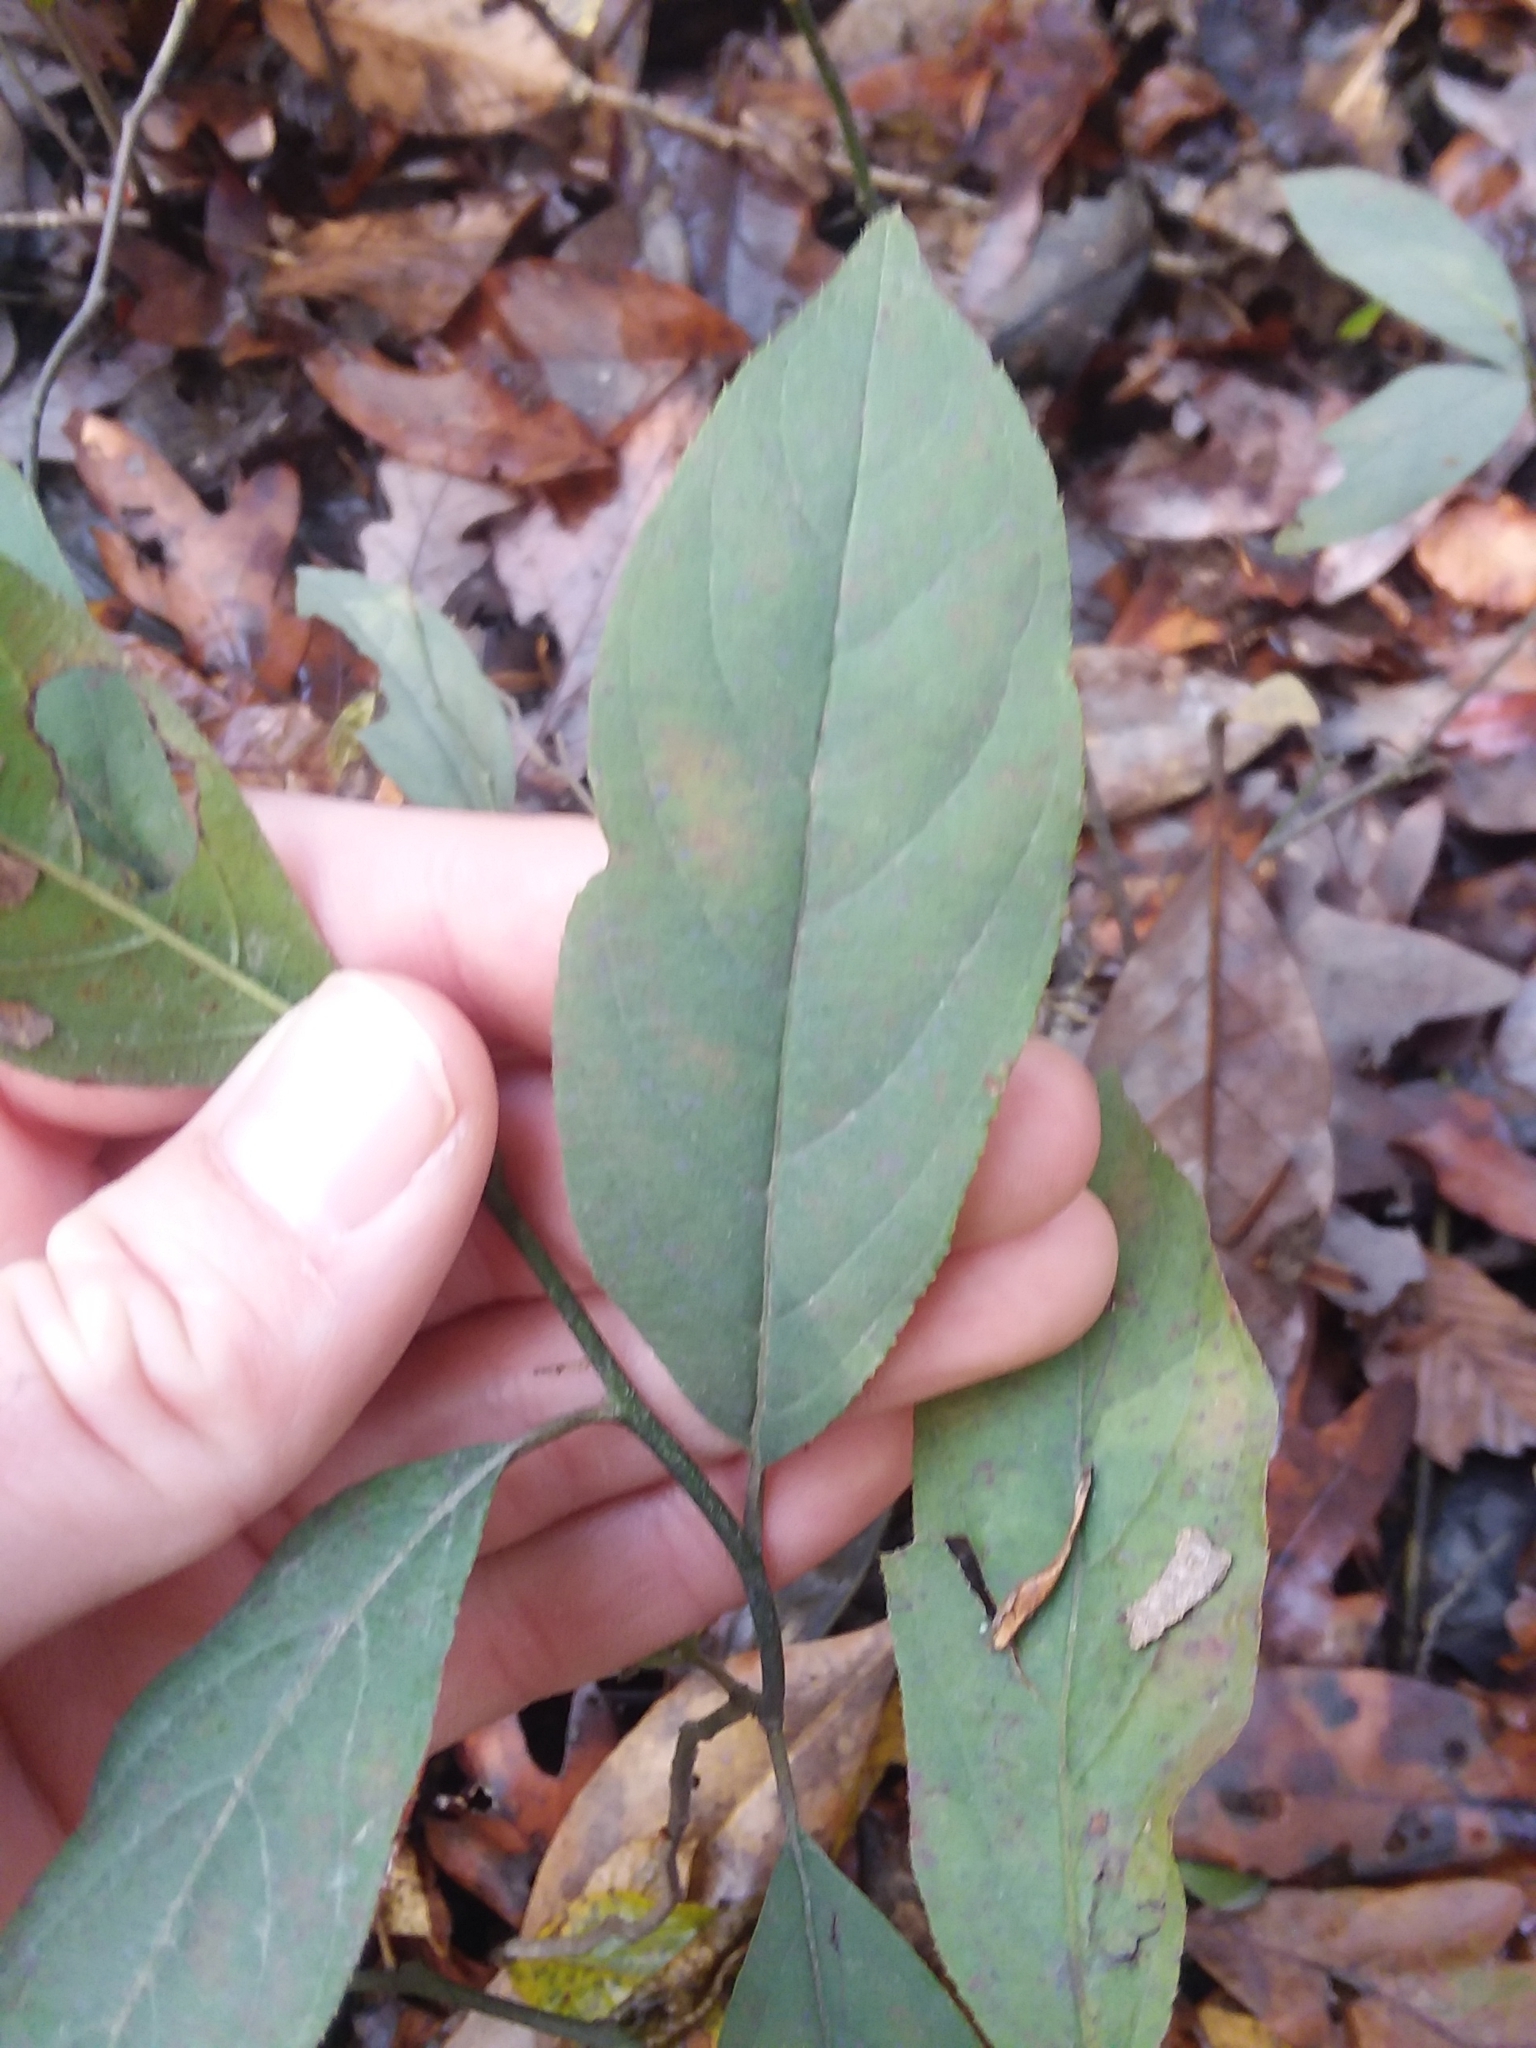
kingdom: Plantae
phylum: Tracheophyta
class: Magnoliopsida
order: Saxifragales
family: Iteaceae
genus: Itea
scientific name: Itea virginica
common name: Sweetspire
